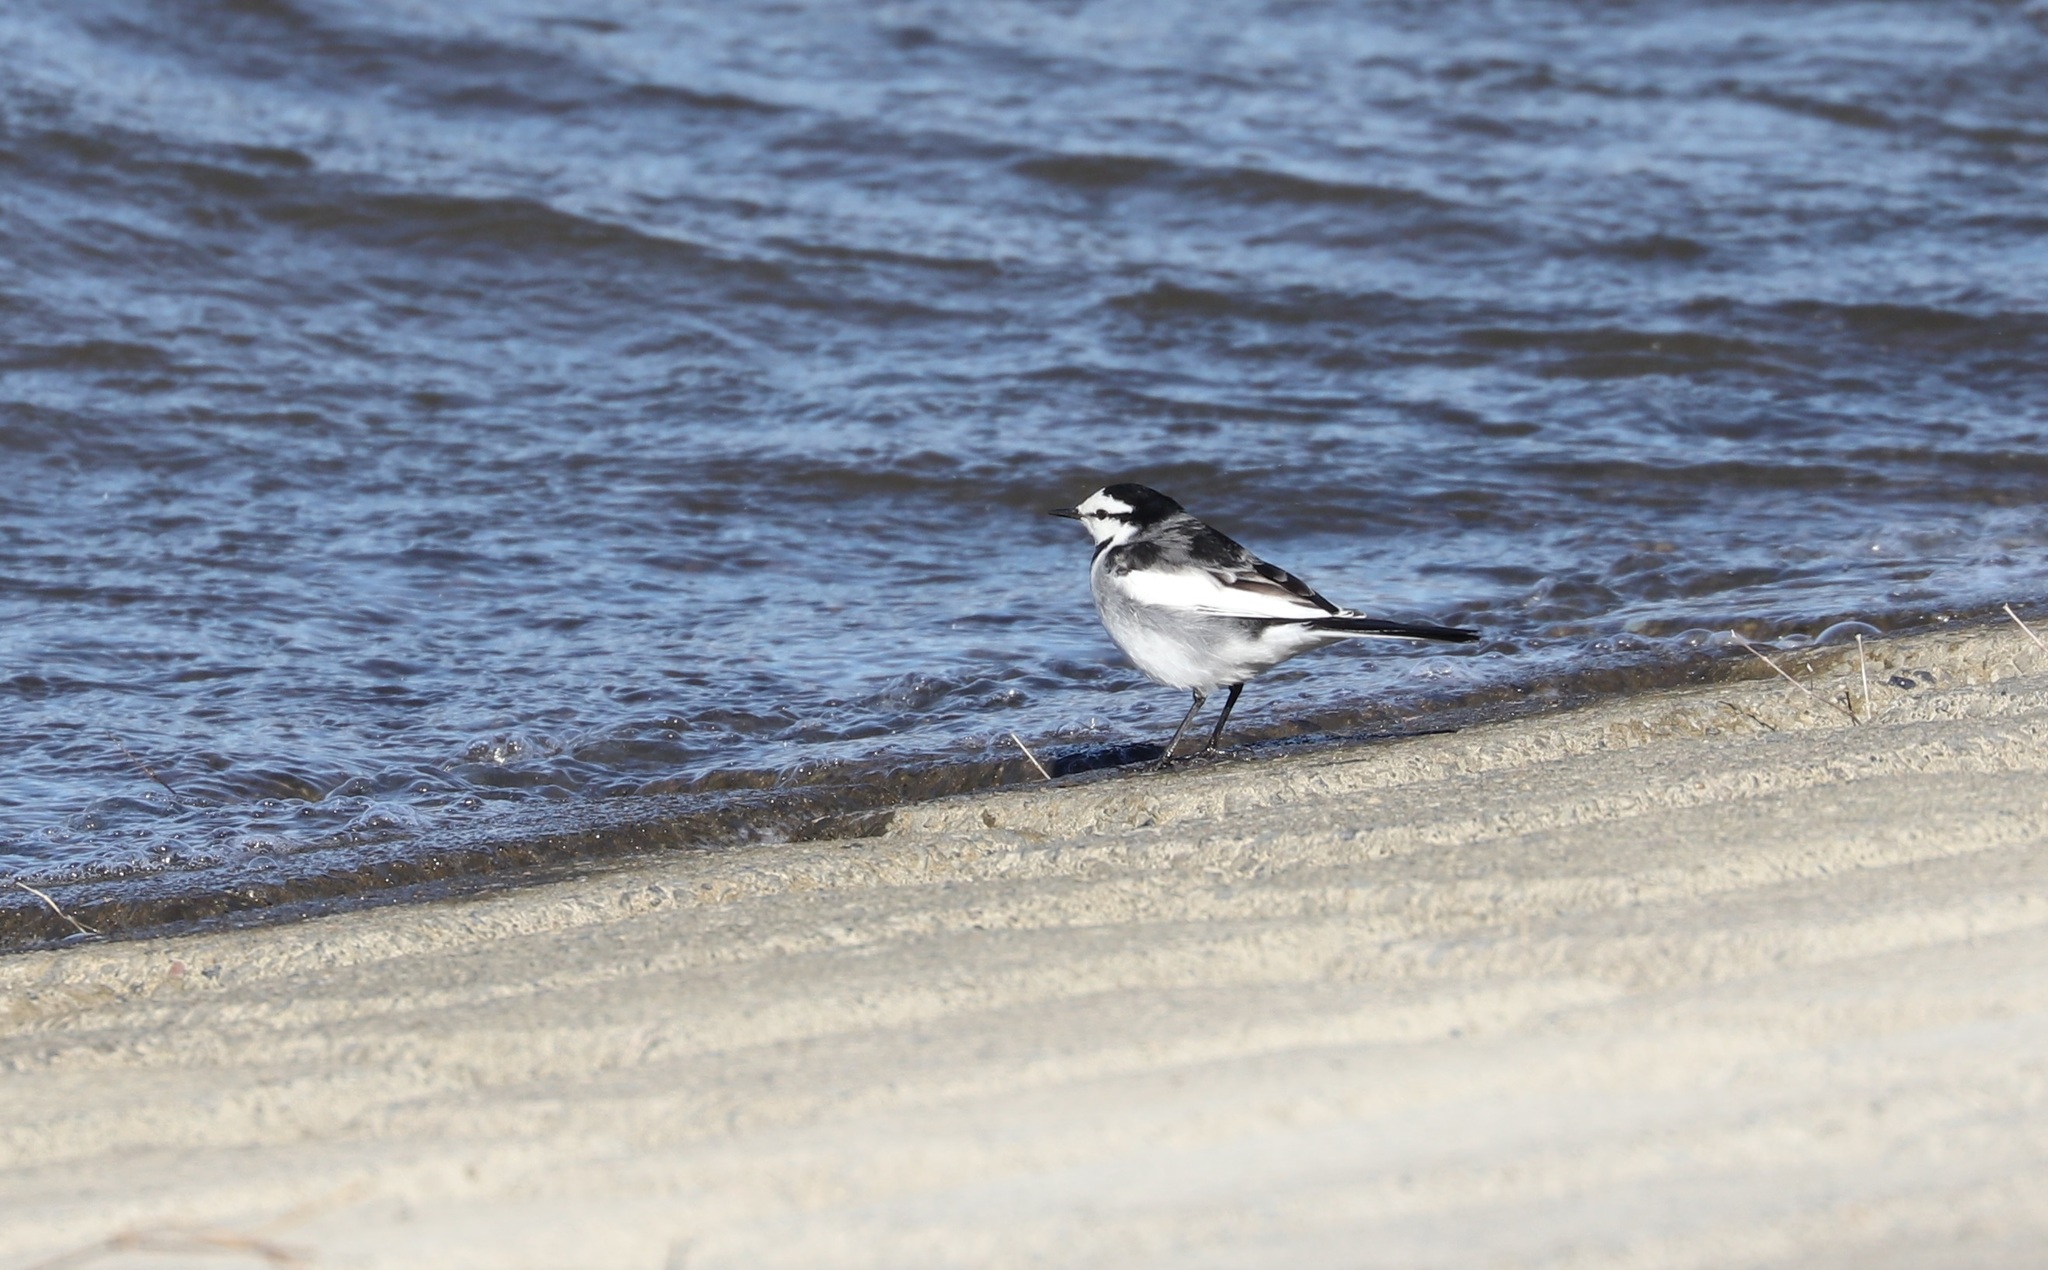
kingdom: Animalia
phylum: Chordata
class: Aves
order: Passeriformes
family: Motacillidae
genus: Motacilla
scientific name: Motacilla alba
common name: White wagtail
